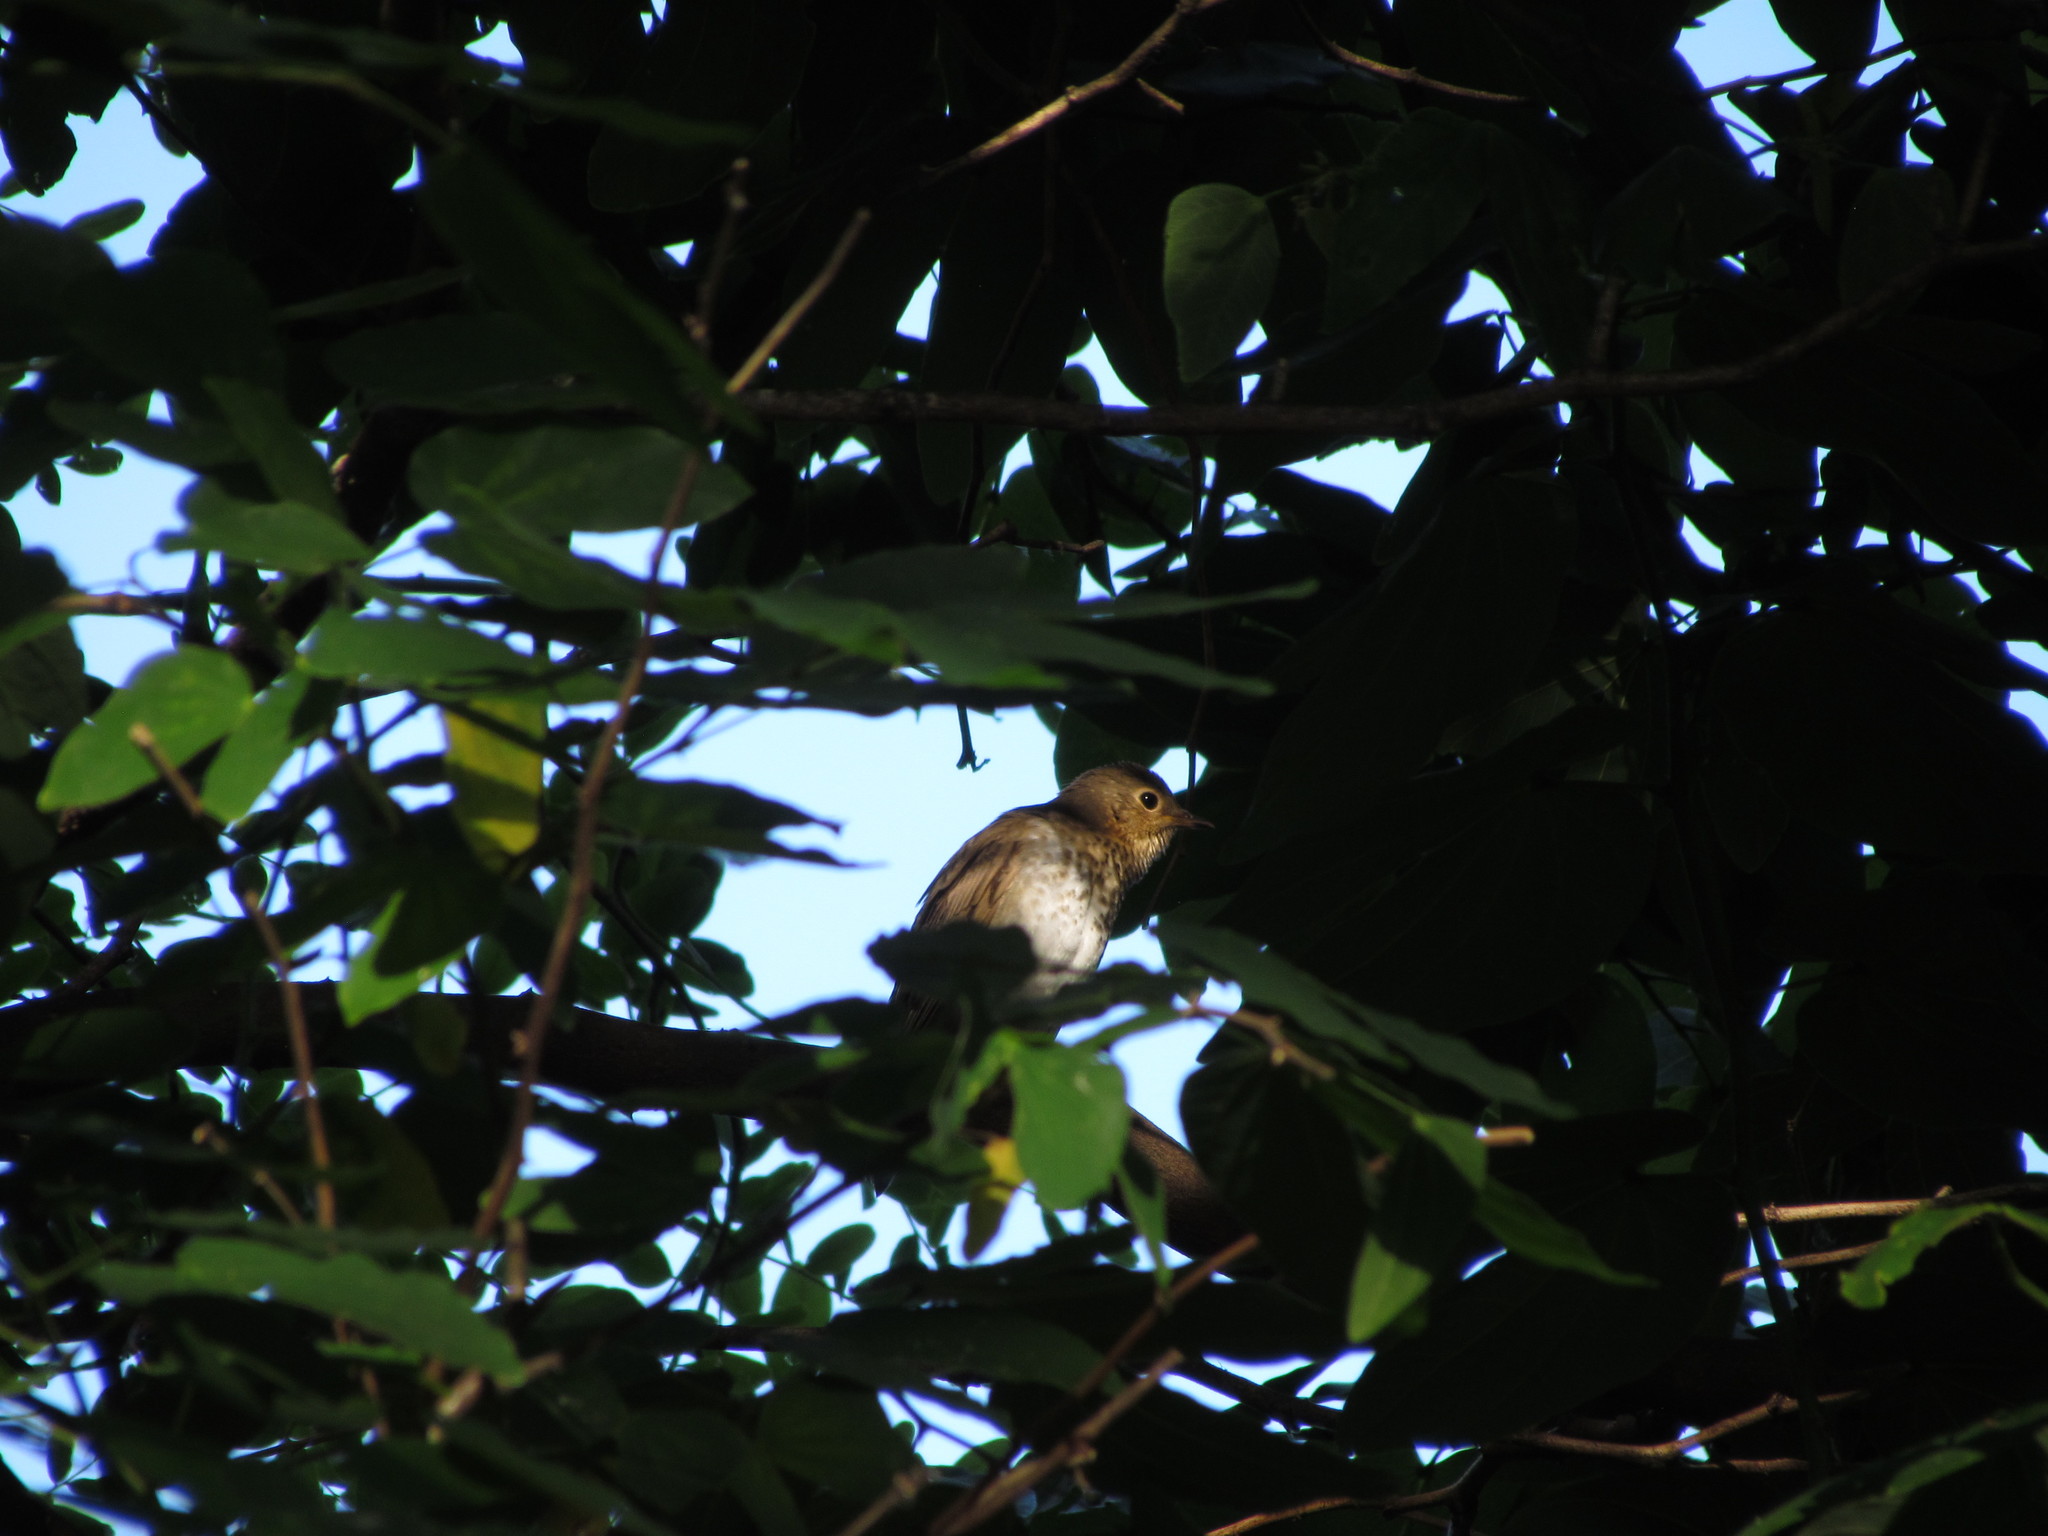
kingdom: Animalia
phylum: Chordata
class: Aves
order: Passeriformes
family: Turdidae
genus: Catharus
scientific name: Catharus ustulatus
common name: Swainson's thrush
